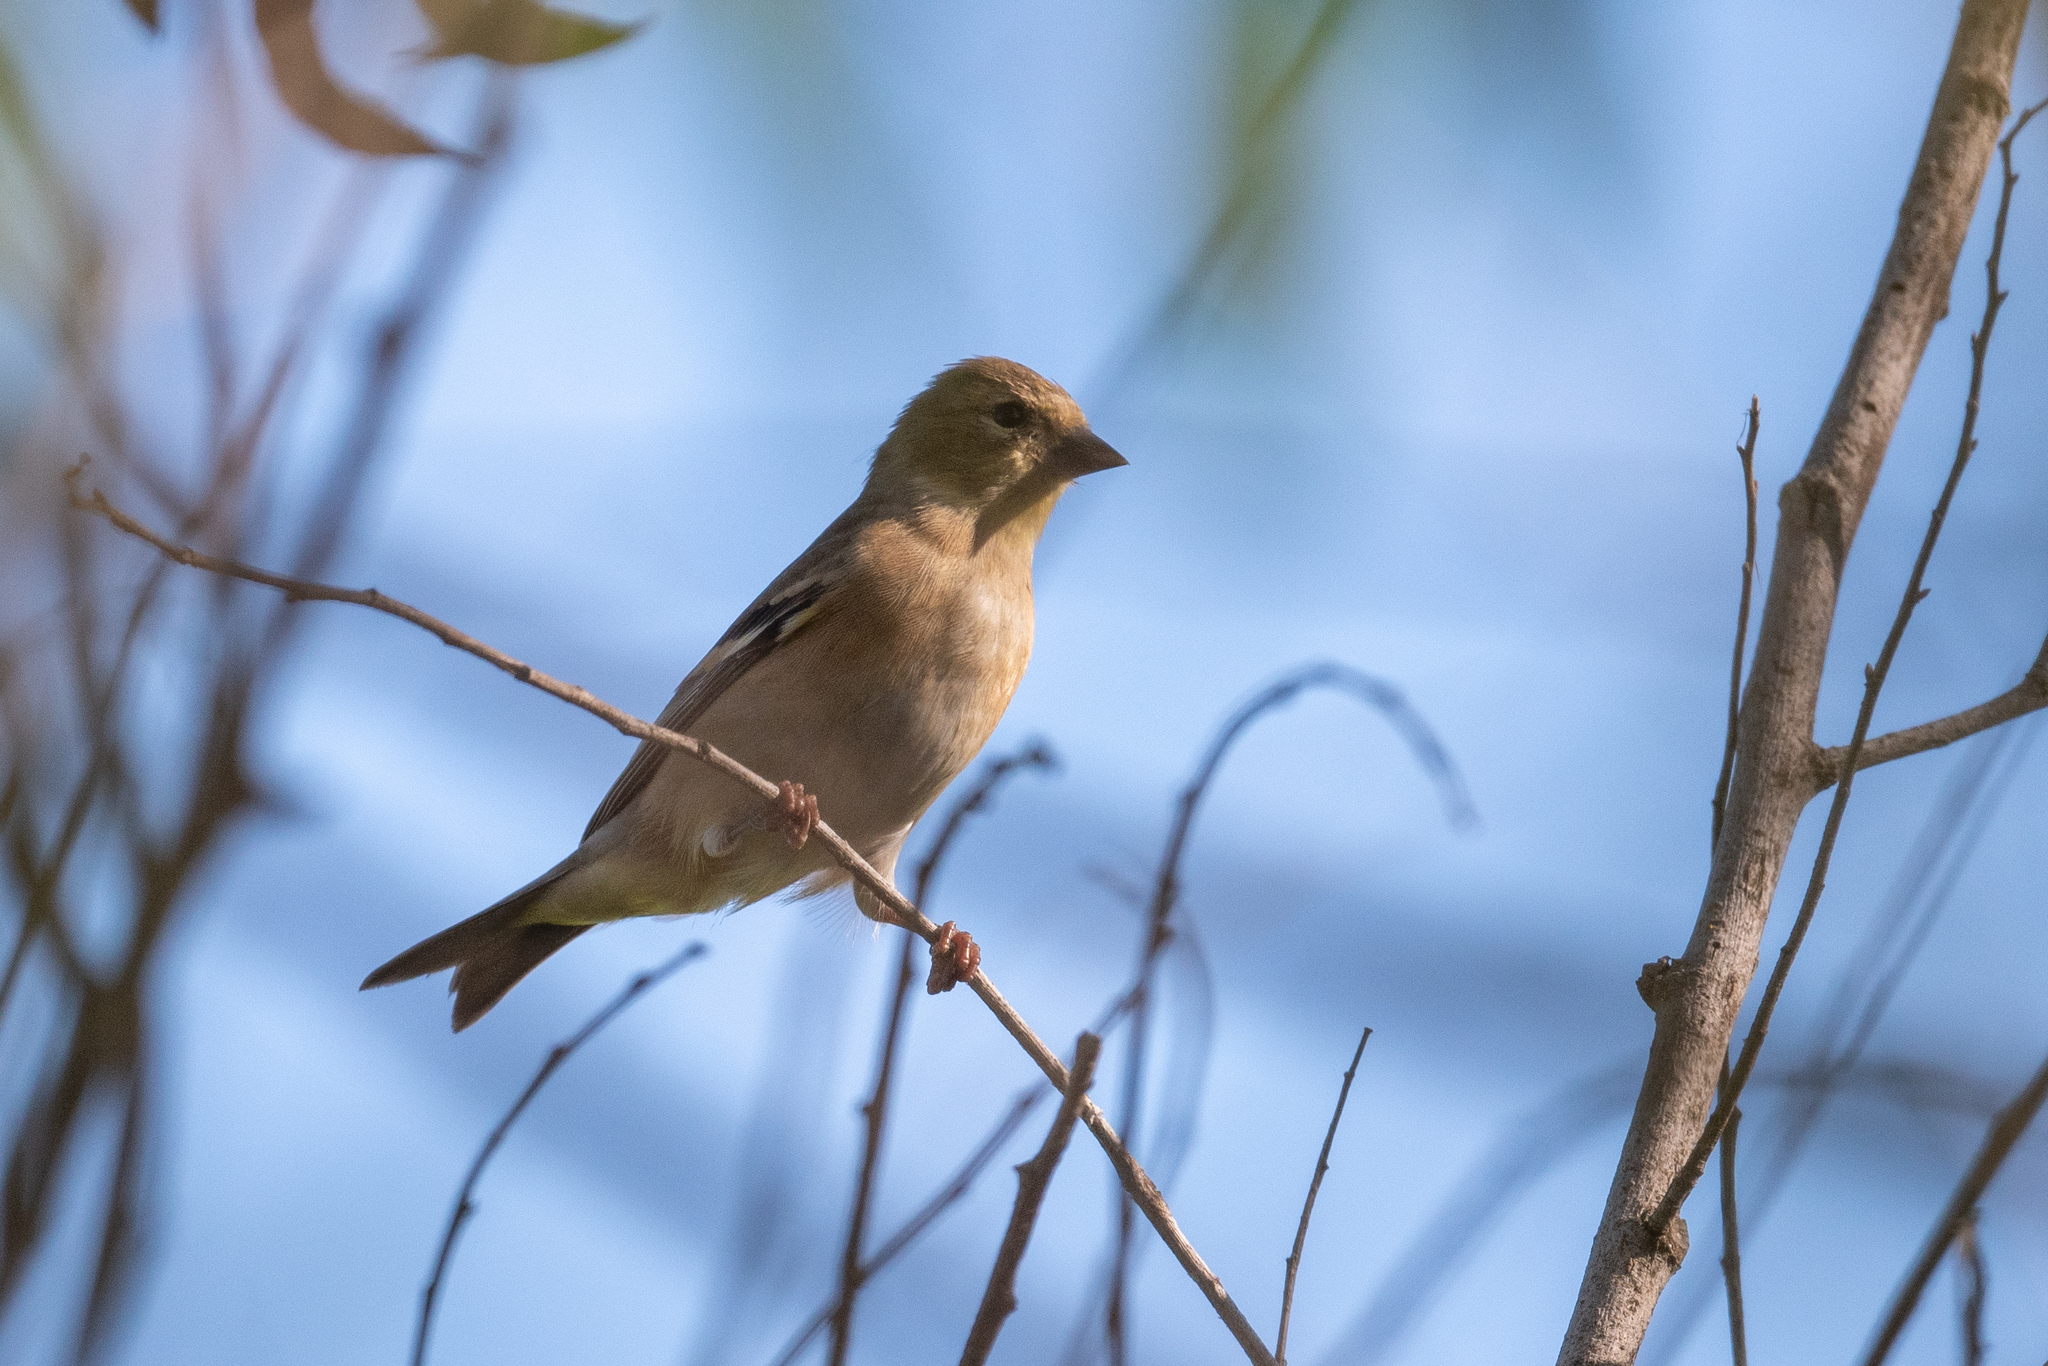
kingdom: Animalia
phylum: Chordata
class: Aves
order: Passeriformes
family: Fringillidae
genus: Spinus
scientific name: Spinus tristis
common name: American goldfinch
